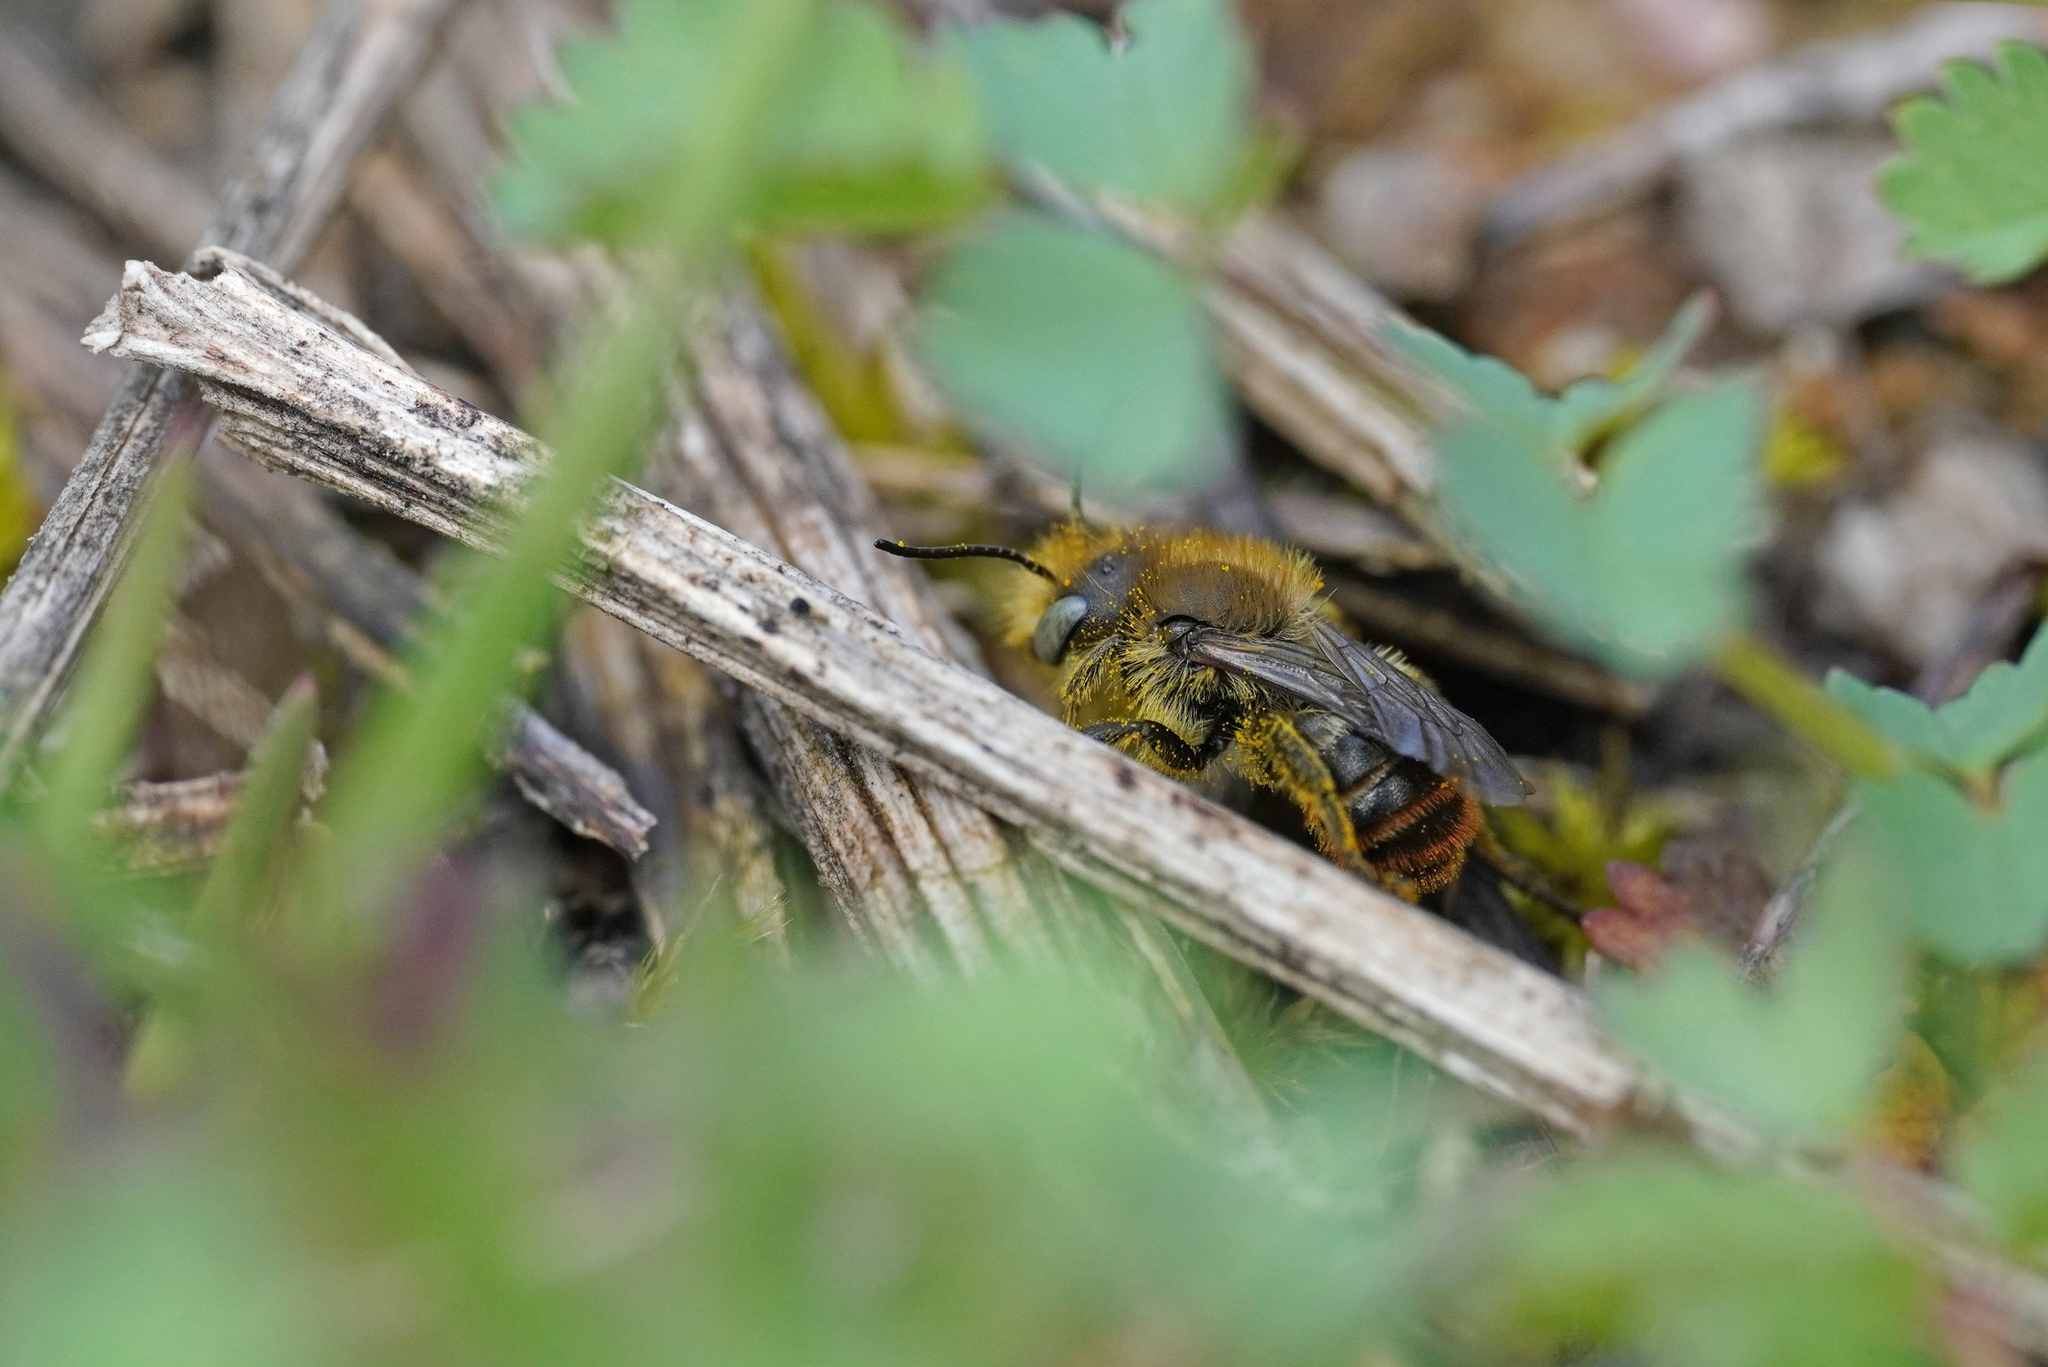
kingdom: Animalia
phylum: Arthropoda
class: Insecta
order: Hymenoptera
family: Megachilidae
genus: Osmia
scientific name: Osmia aurulenta
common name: Gold-fringed mason bee
